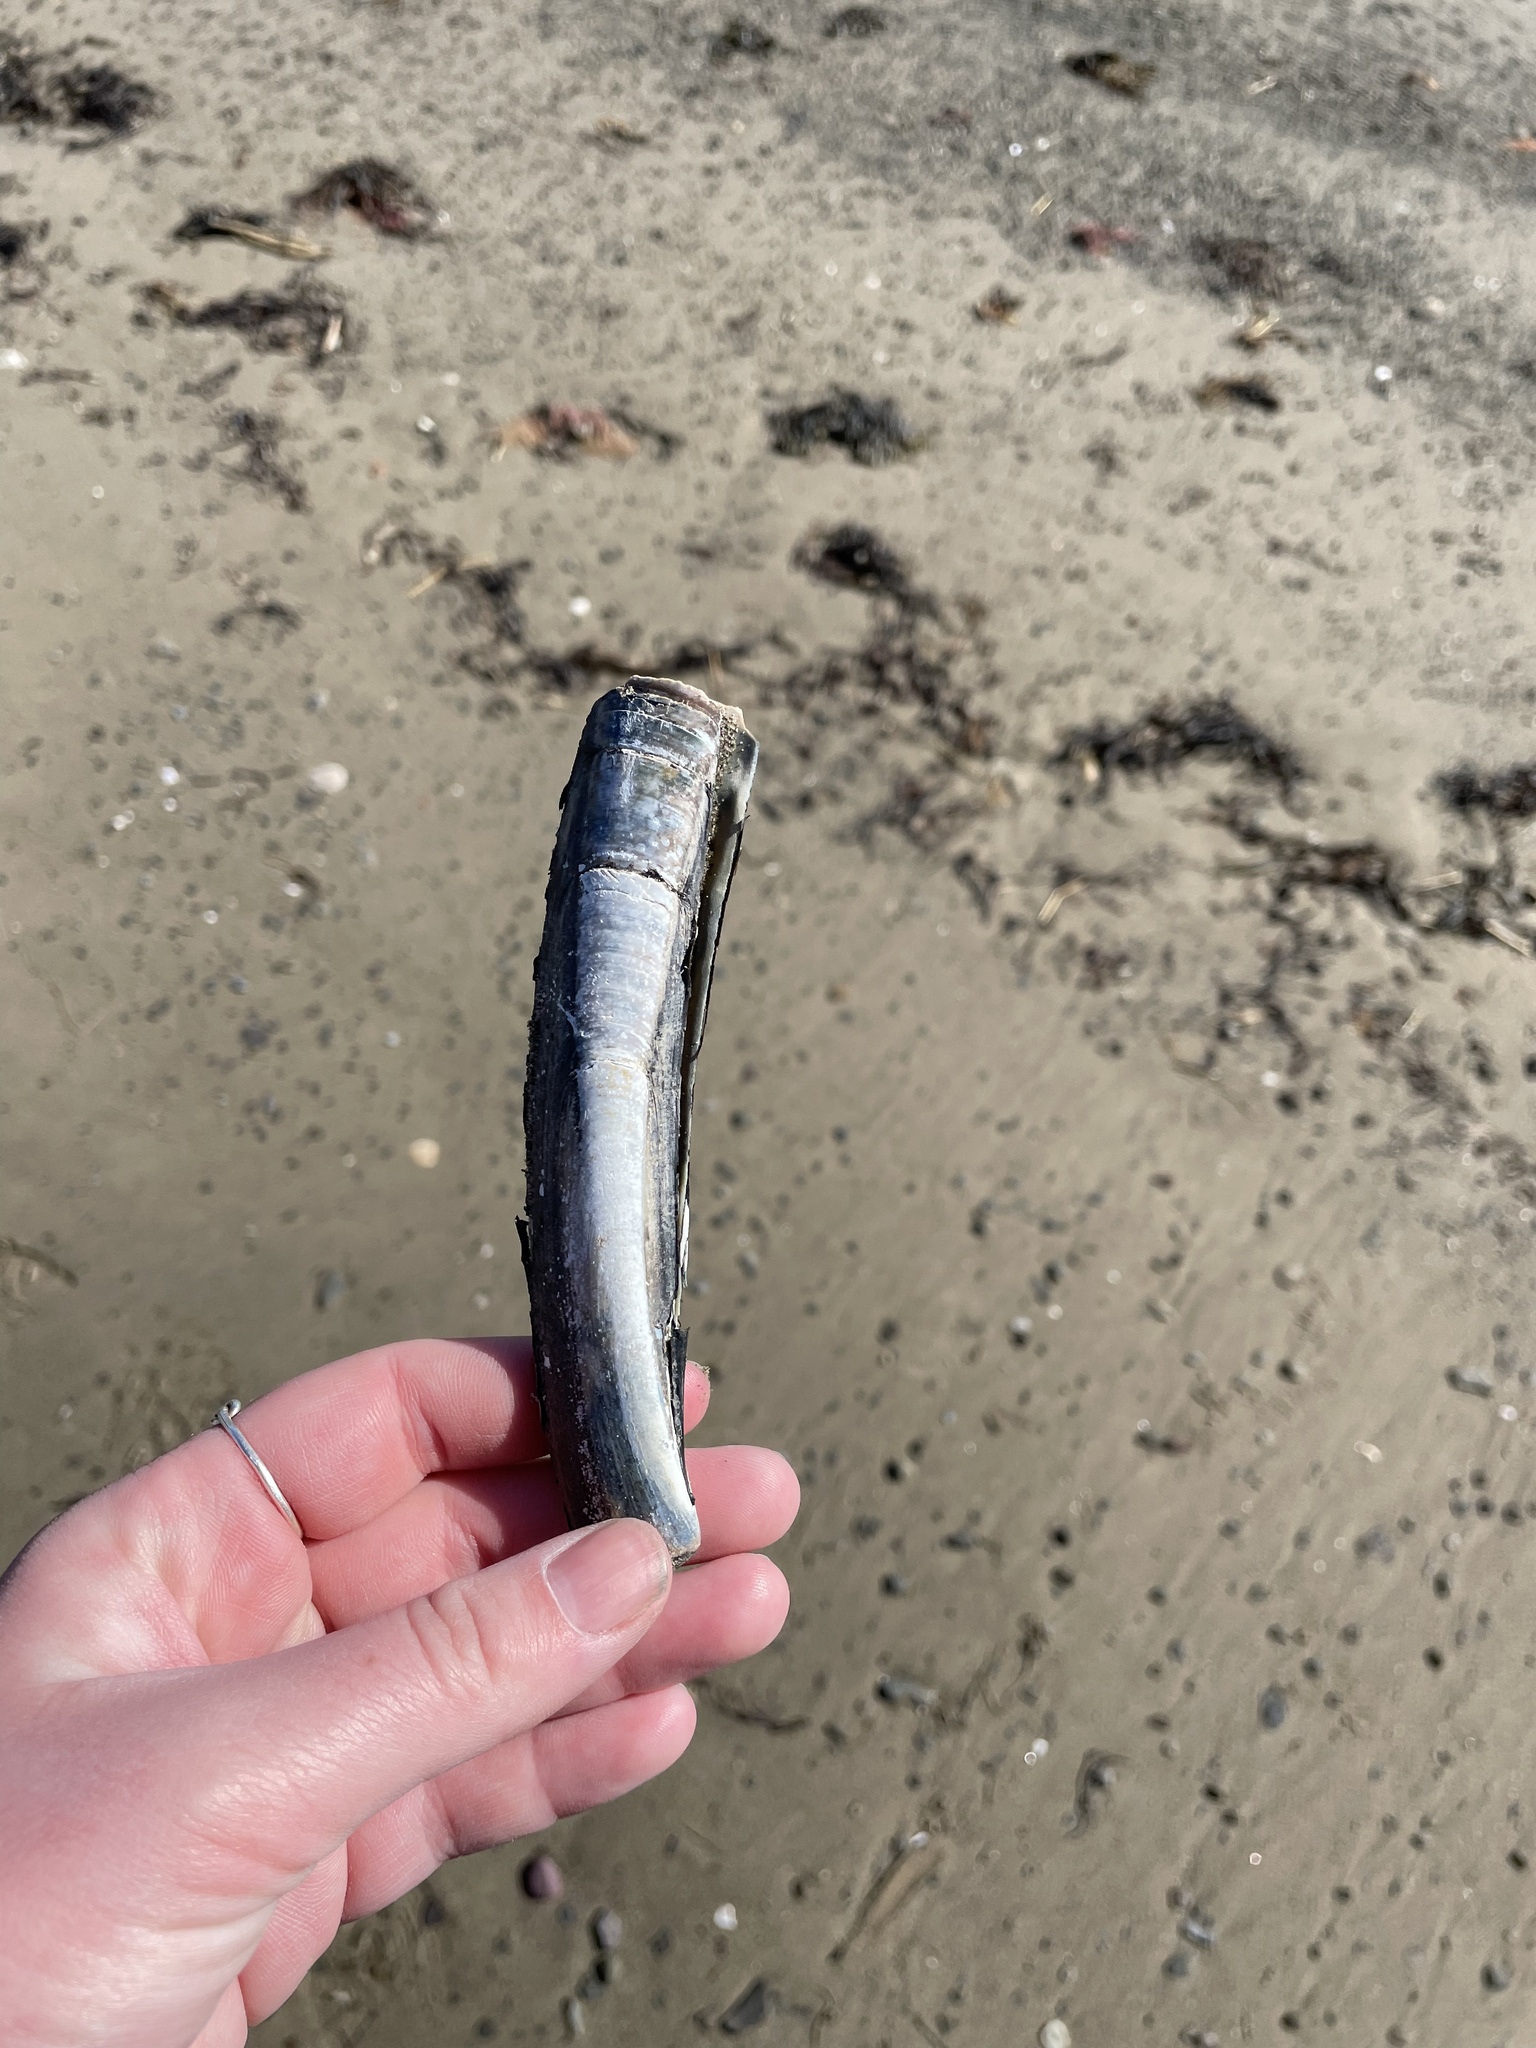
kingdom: Animalia
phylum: Mollusca
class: Bivalvia
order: Adapedonta
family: Pharidae
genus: Ensis
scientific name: Ensis leei
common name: American jack knife clam
